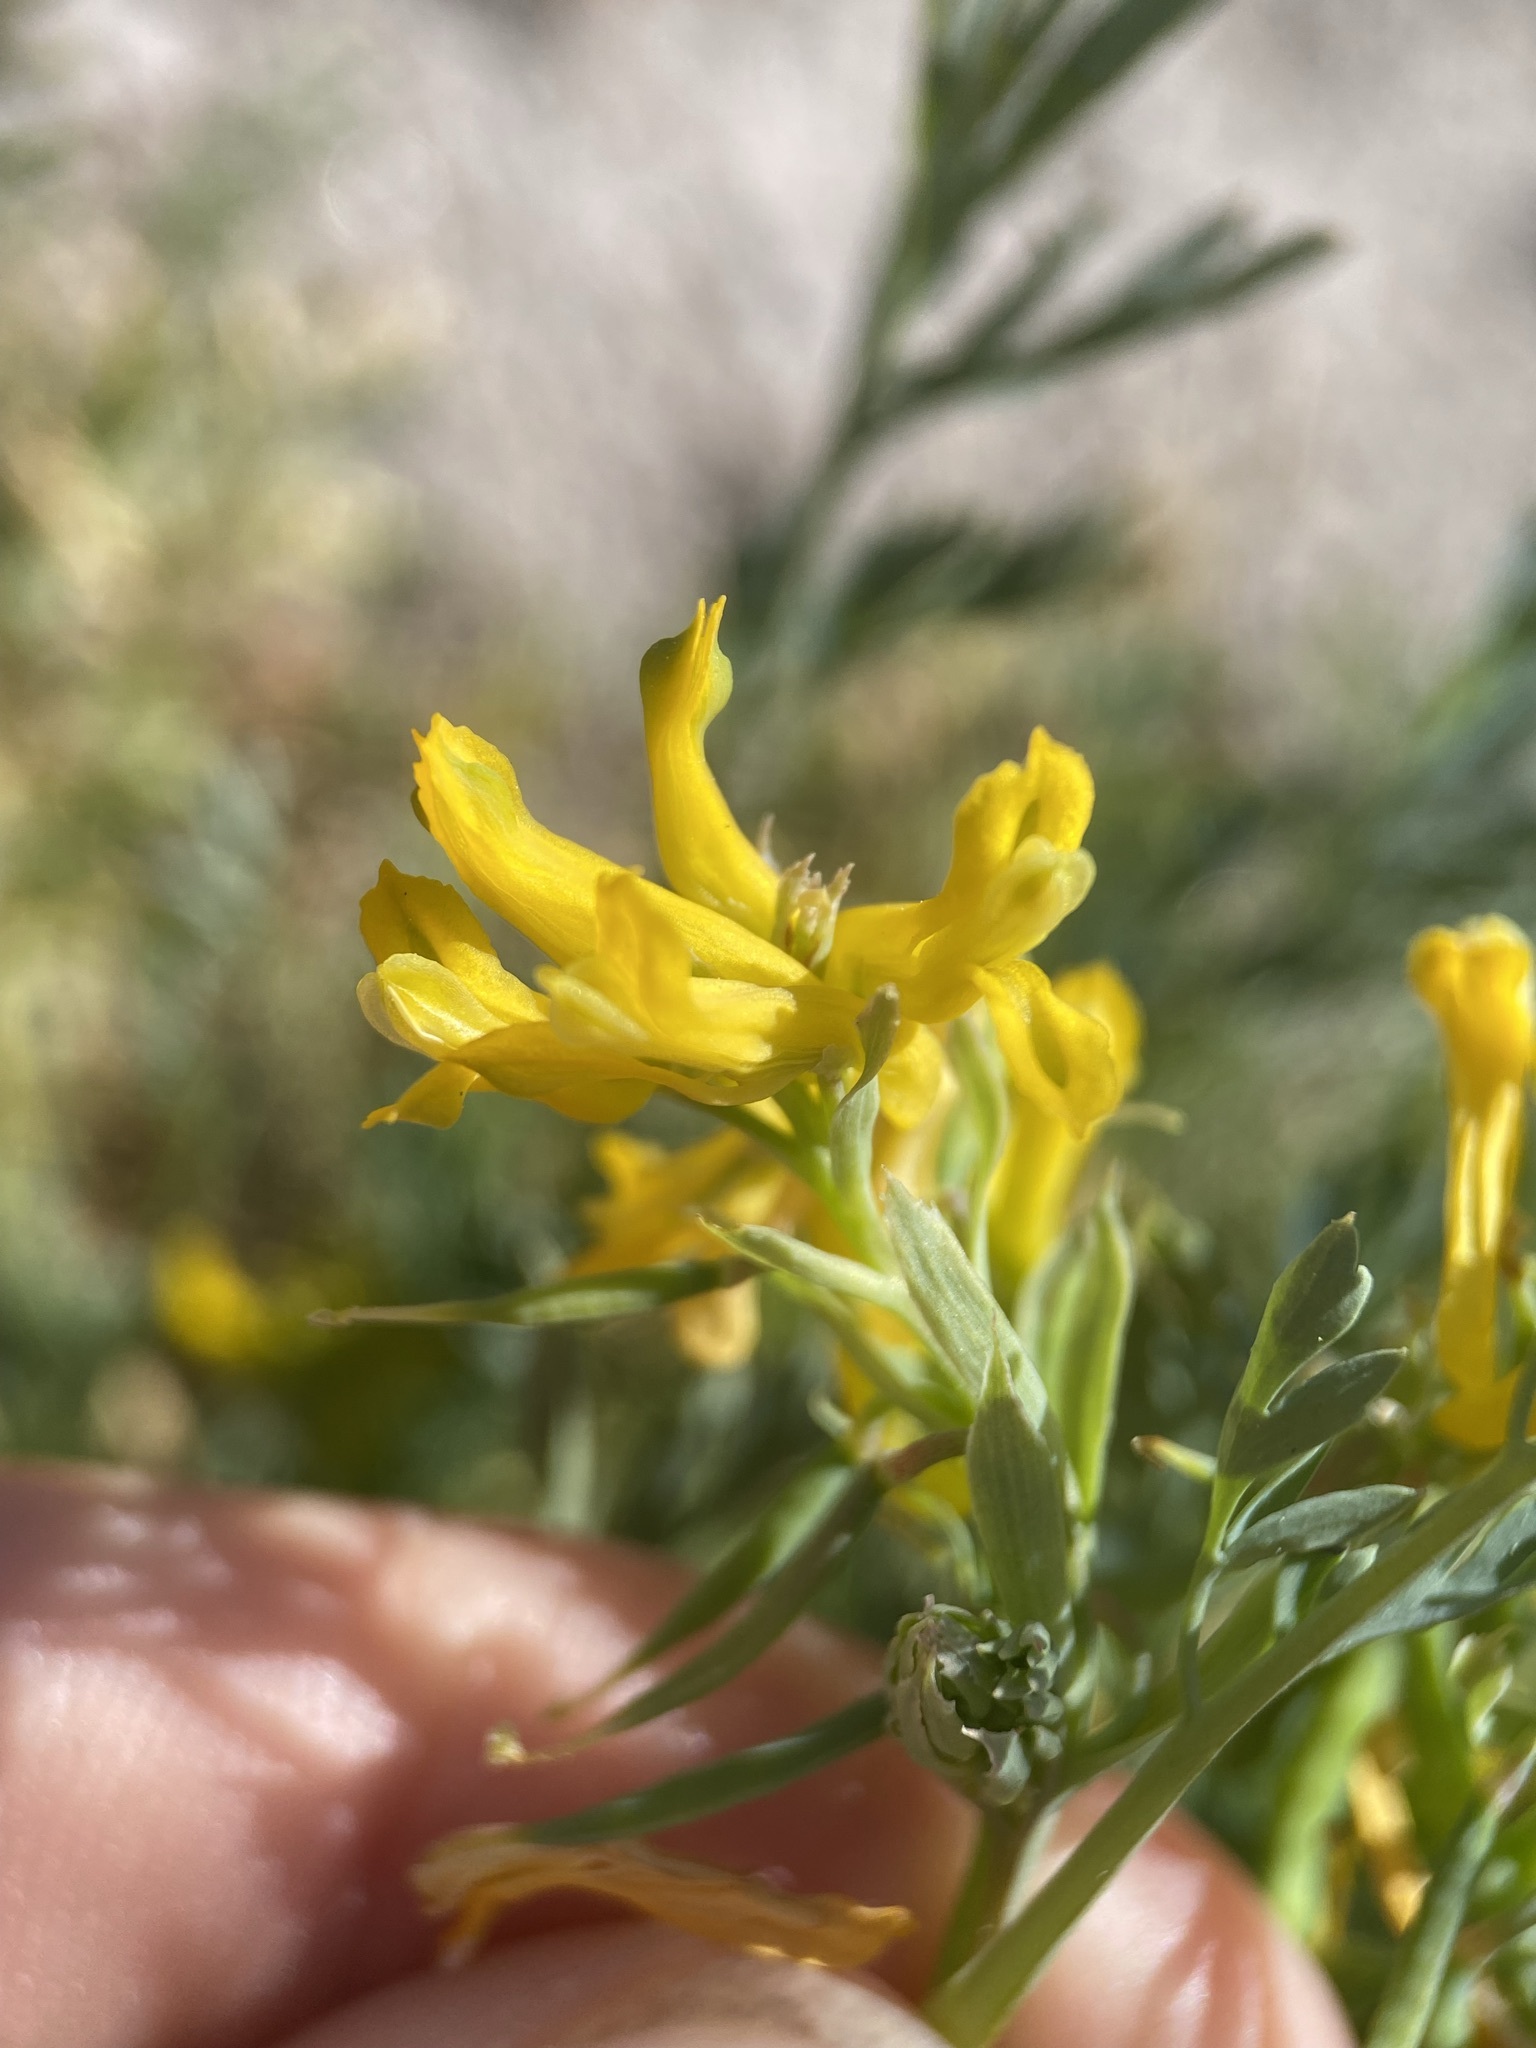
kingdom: Plantae
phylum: Tracheophyta
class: Magnoliopsida
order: Ranunculales
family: Papaveraceae
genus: Corydalis
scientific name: Corydalis aurea
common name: Golden corydalis
